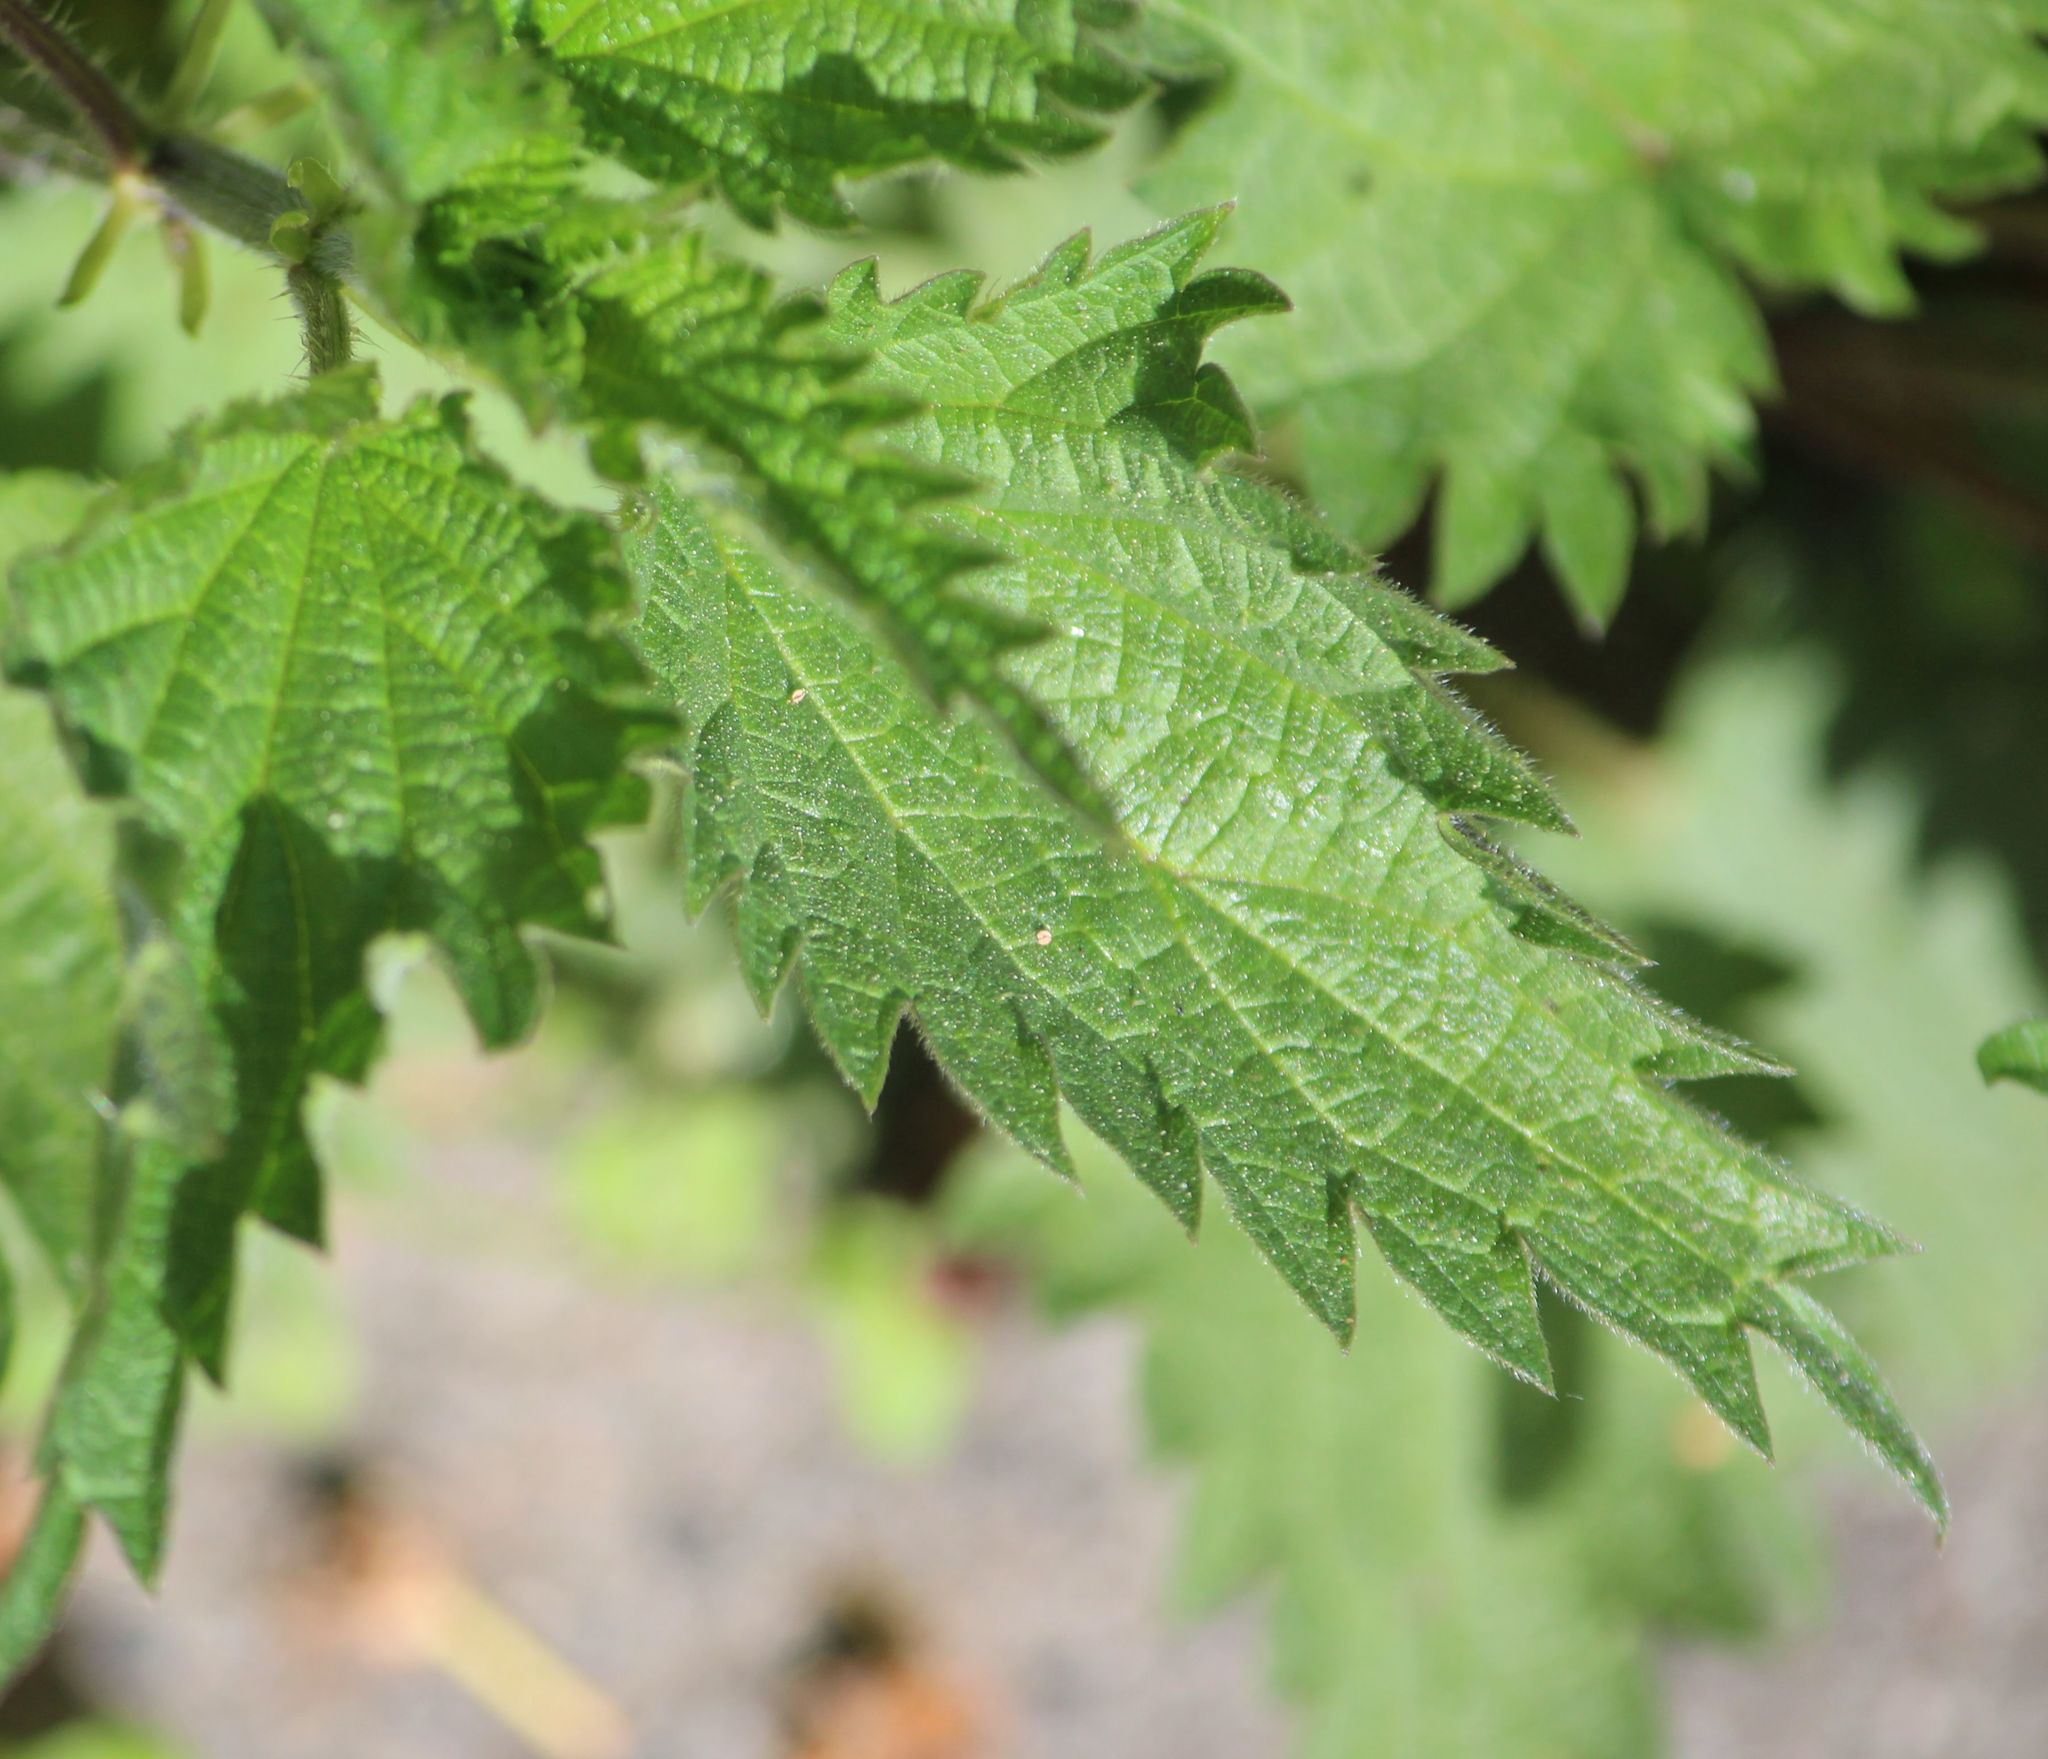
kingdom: Plantae
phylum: Tracheophyta
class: Magnoliopsida
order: Rosales
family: Urticaceae
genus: Urtica
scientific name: Urtica dioica
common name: Common nettle
